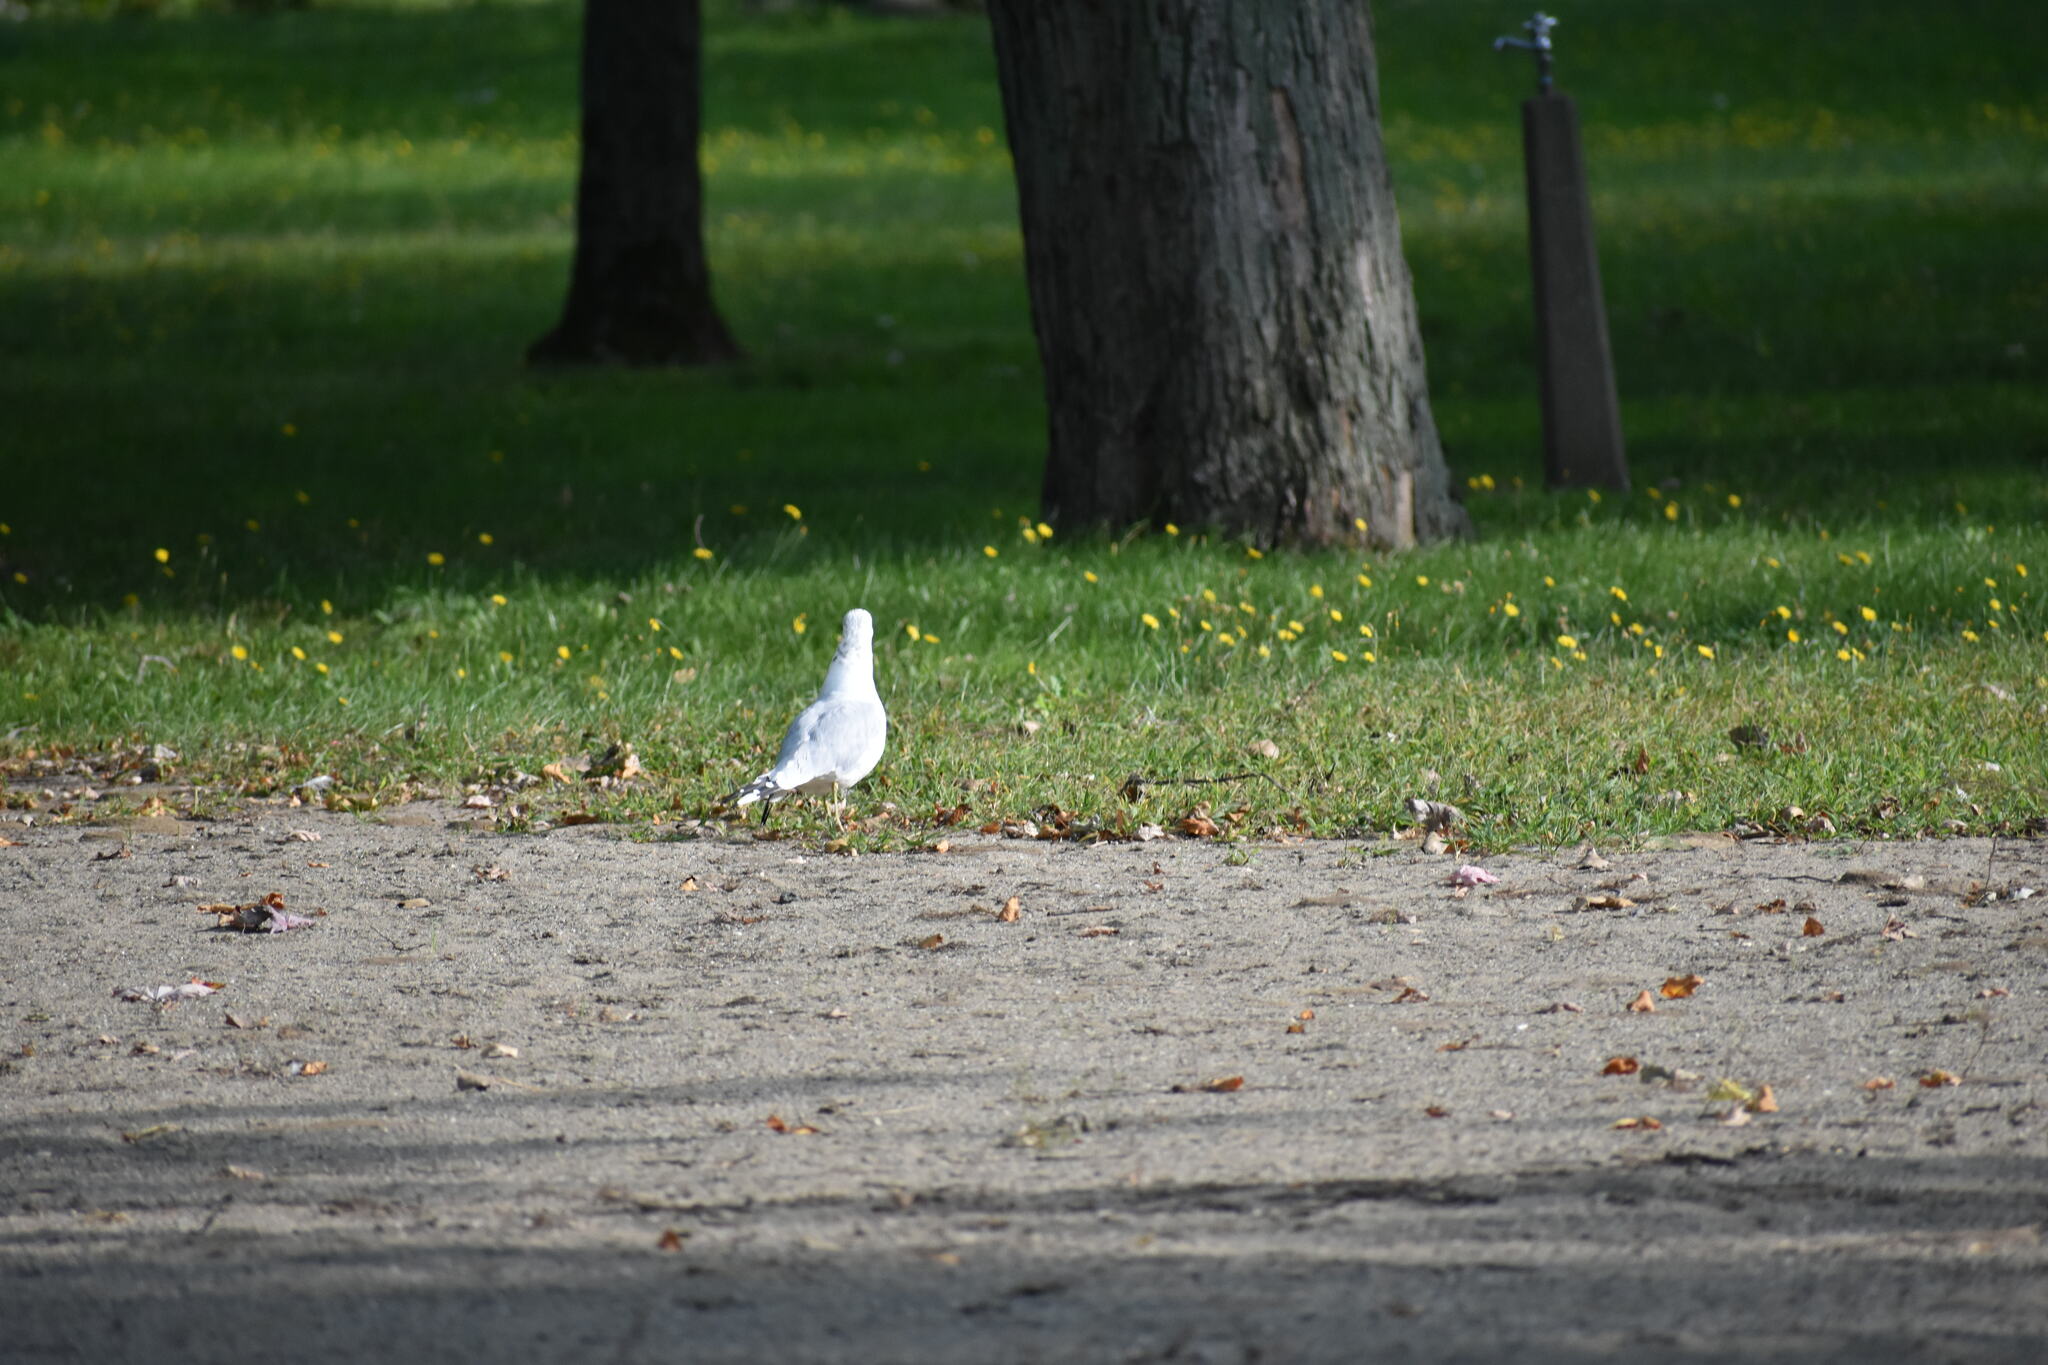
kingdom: Animalia
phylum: Chordata
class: Aves
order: Charadriiformes
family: Laridae
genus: Larus
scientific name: Larus delawarensis
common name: Ring-billed gull
